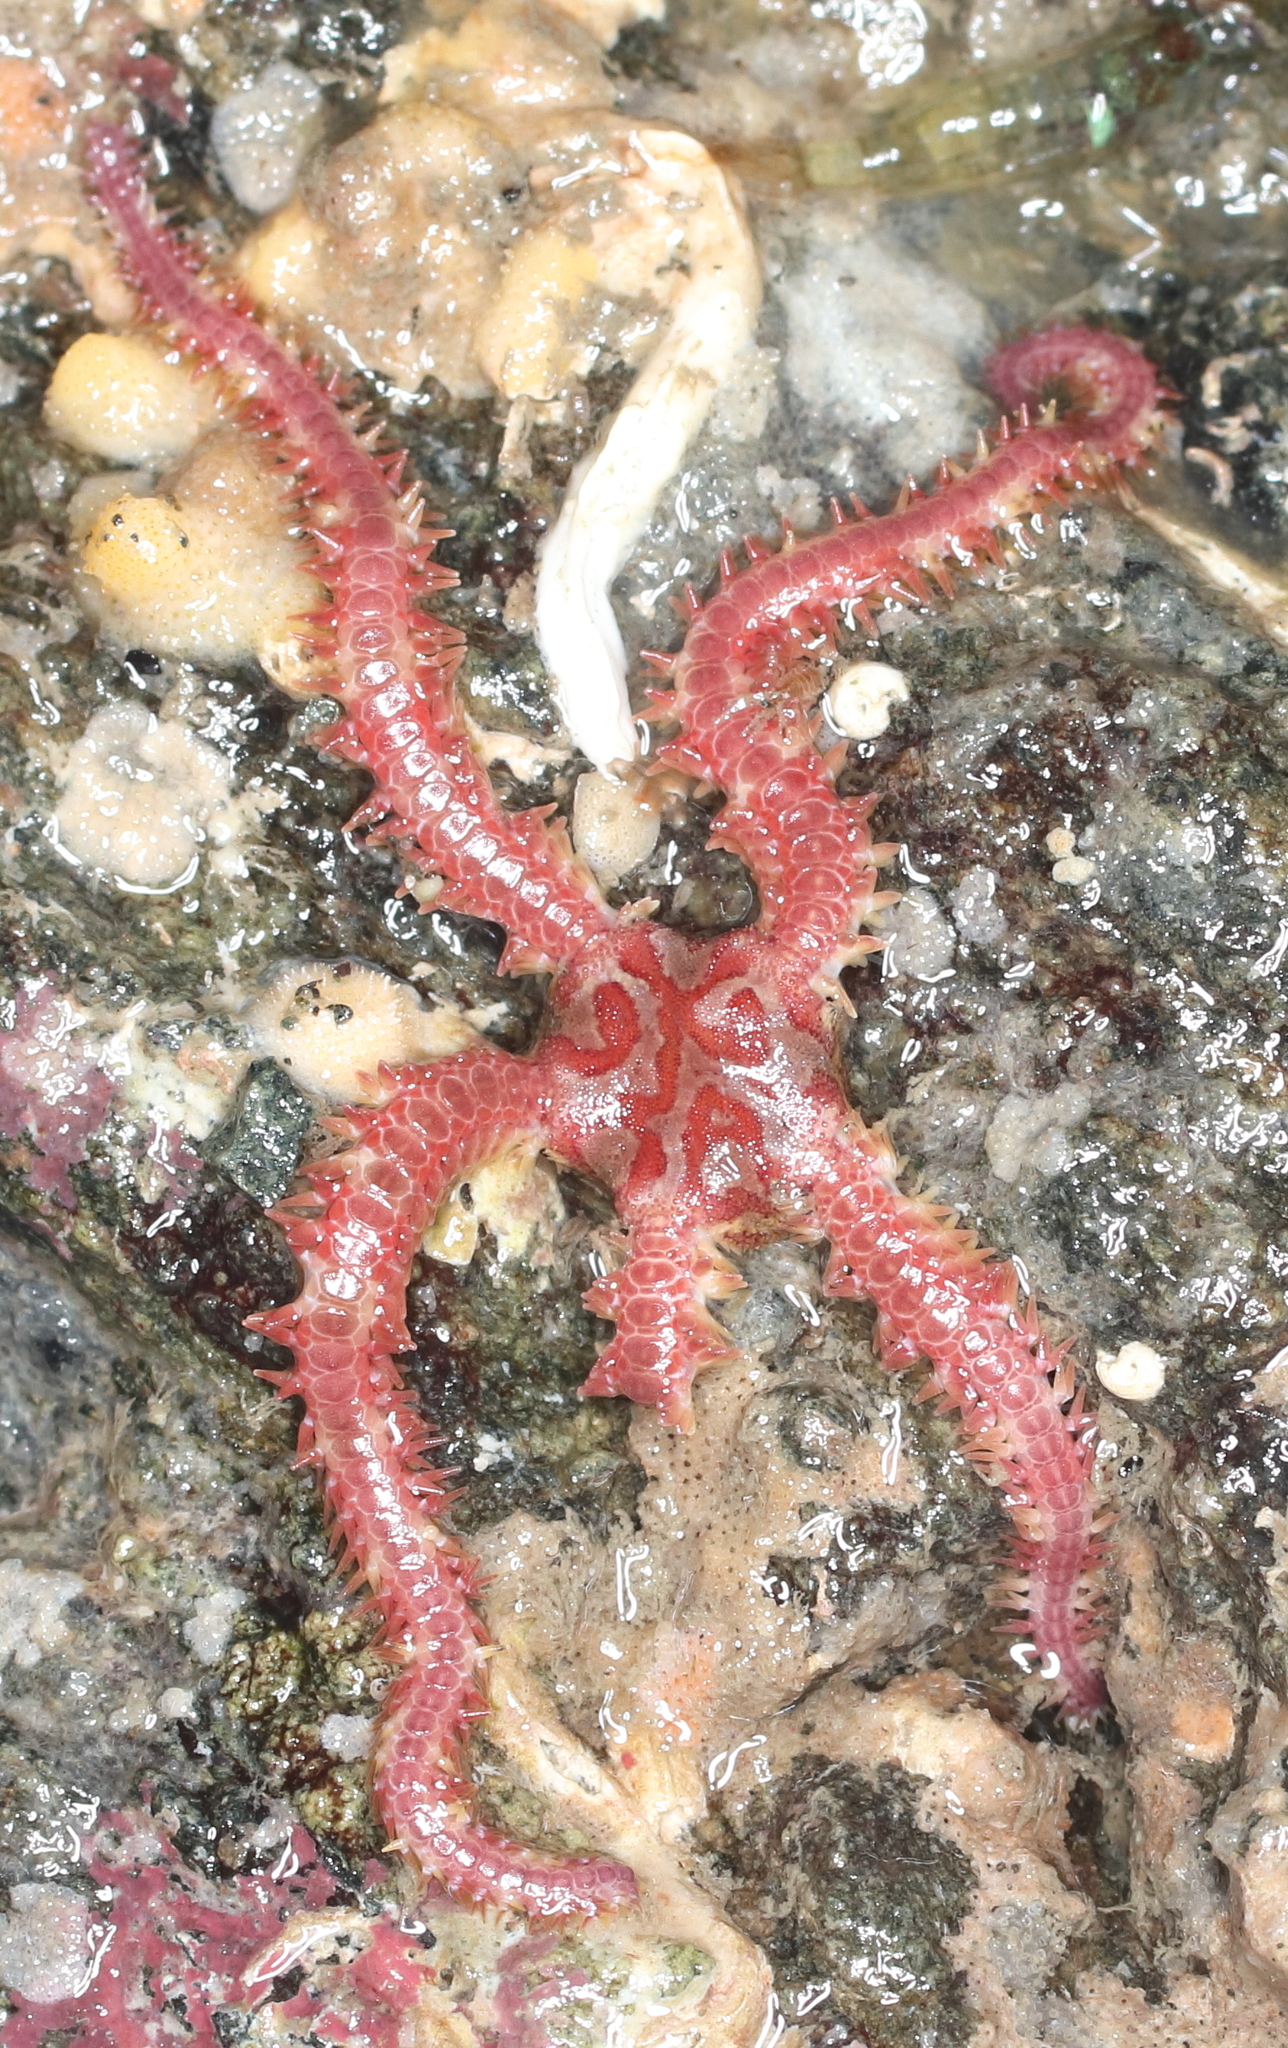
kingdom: Animalia
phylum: Echinodermata
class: Ophiuroidea
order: Amphilepidida
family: Ophiopholidae
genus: Ophiopholis
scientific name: Ophiopholis kennerlyi
